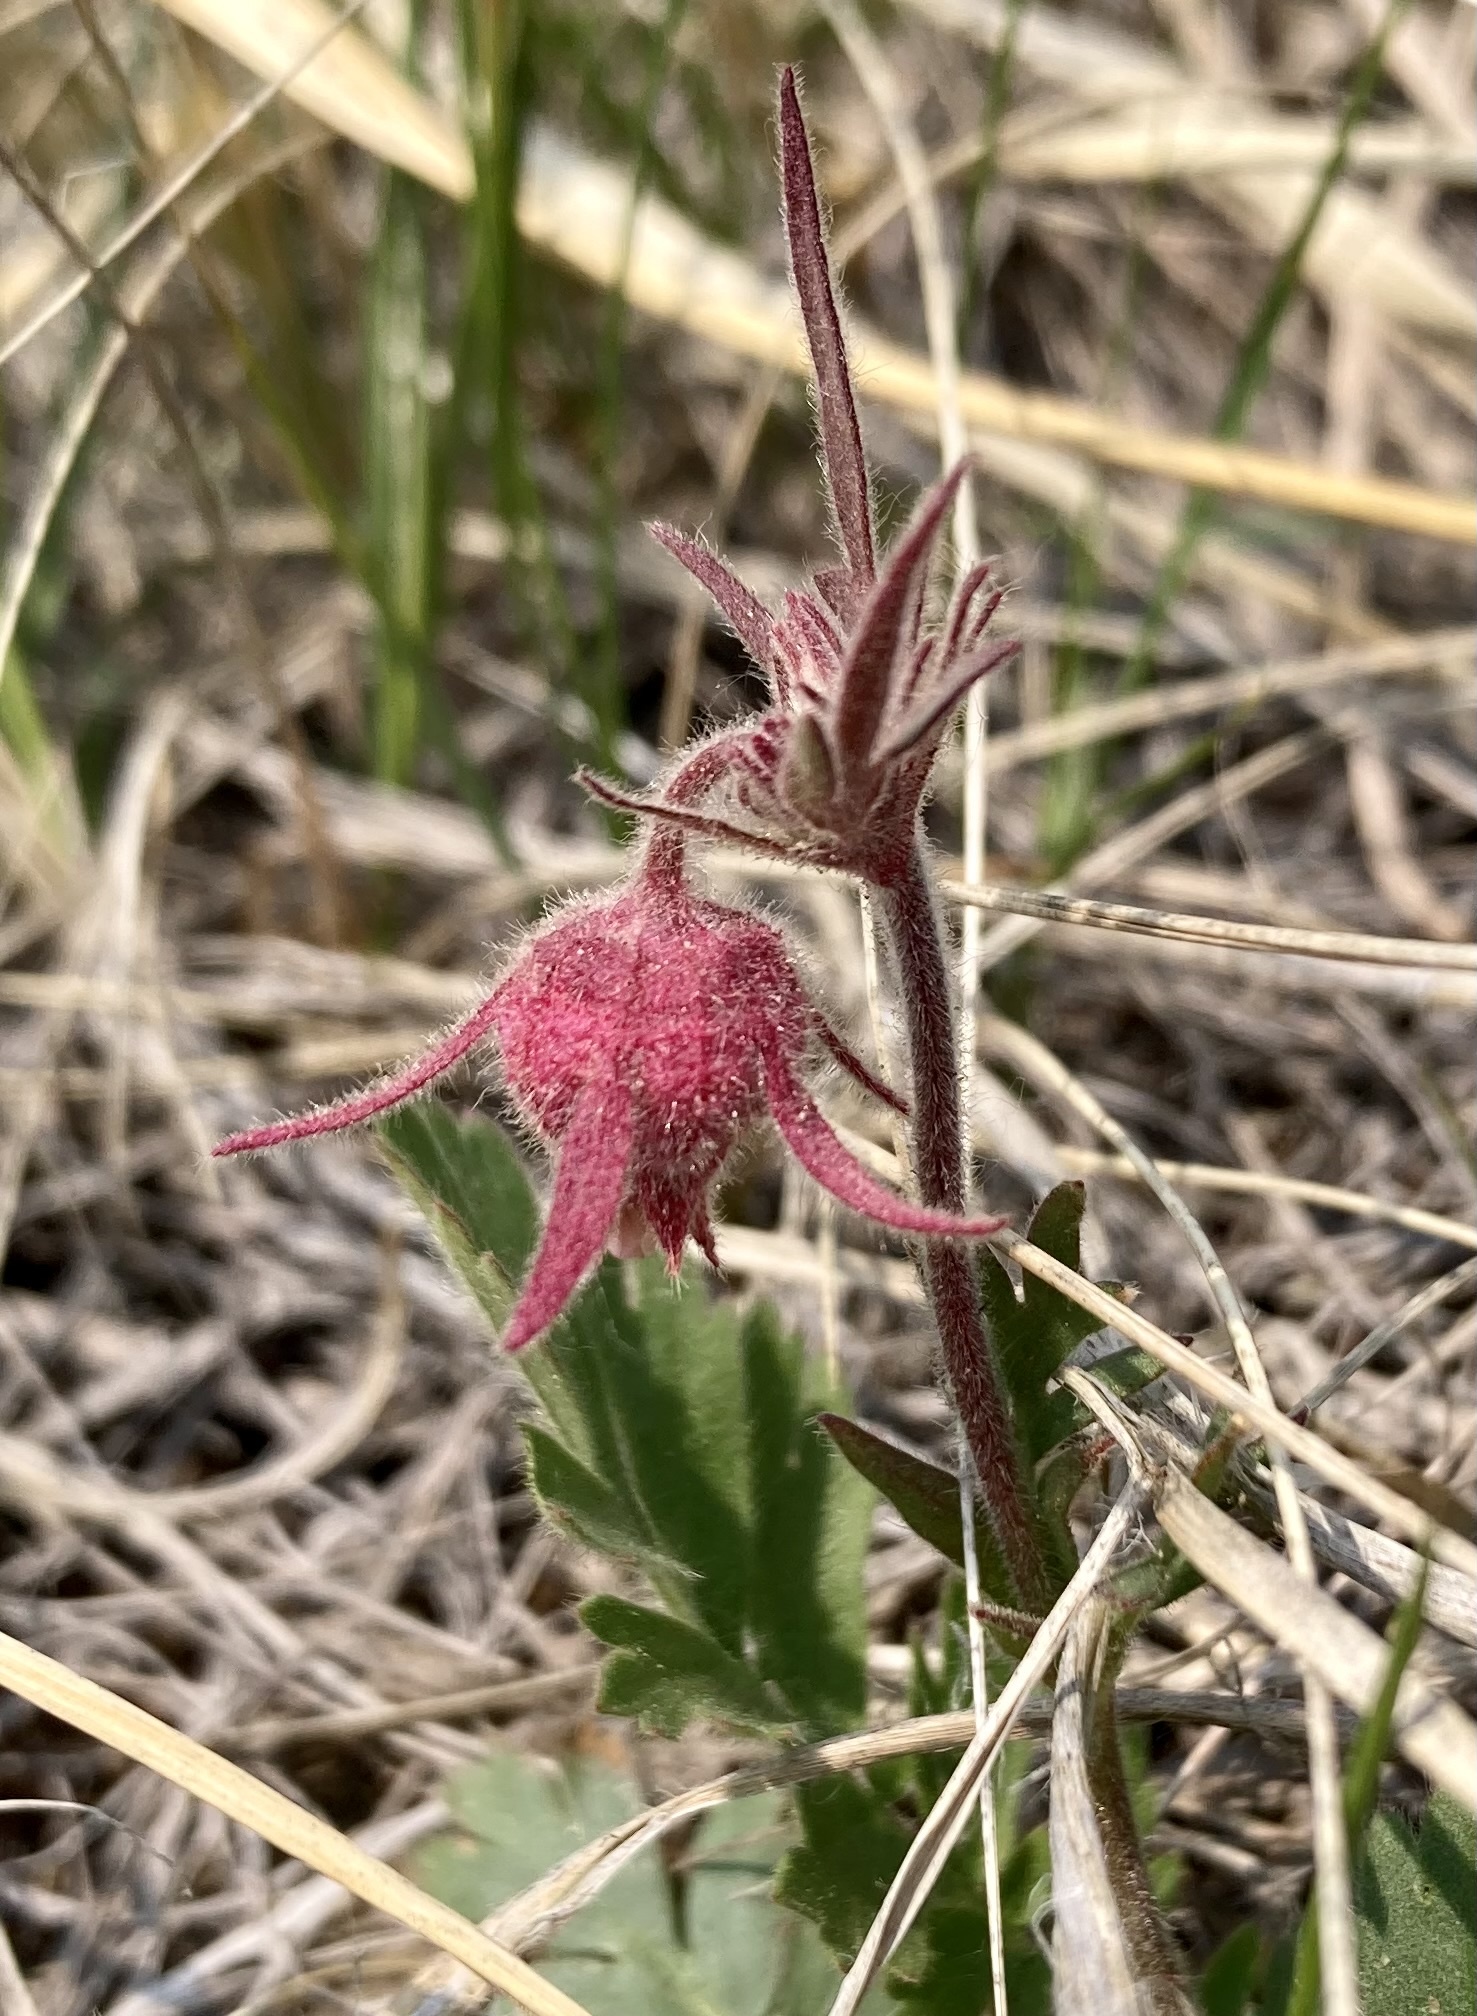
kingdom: Plantae
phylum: Tracheophyta
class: Magnoliopsida
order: Rosales
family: Rosaceae
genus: Geum
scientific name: Geum triflorum
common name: Old man's whiskers
